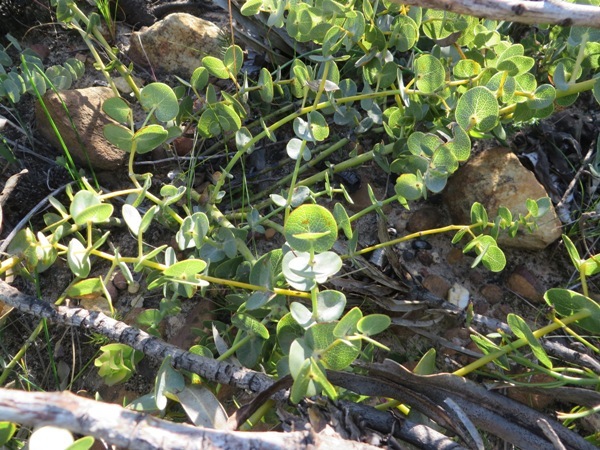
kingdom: Plantae
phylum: Tracheophyta
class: Magnoliopsida
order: Fabales
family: Fabaceae
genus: Rafnia
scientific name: Rafnia acuminata
